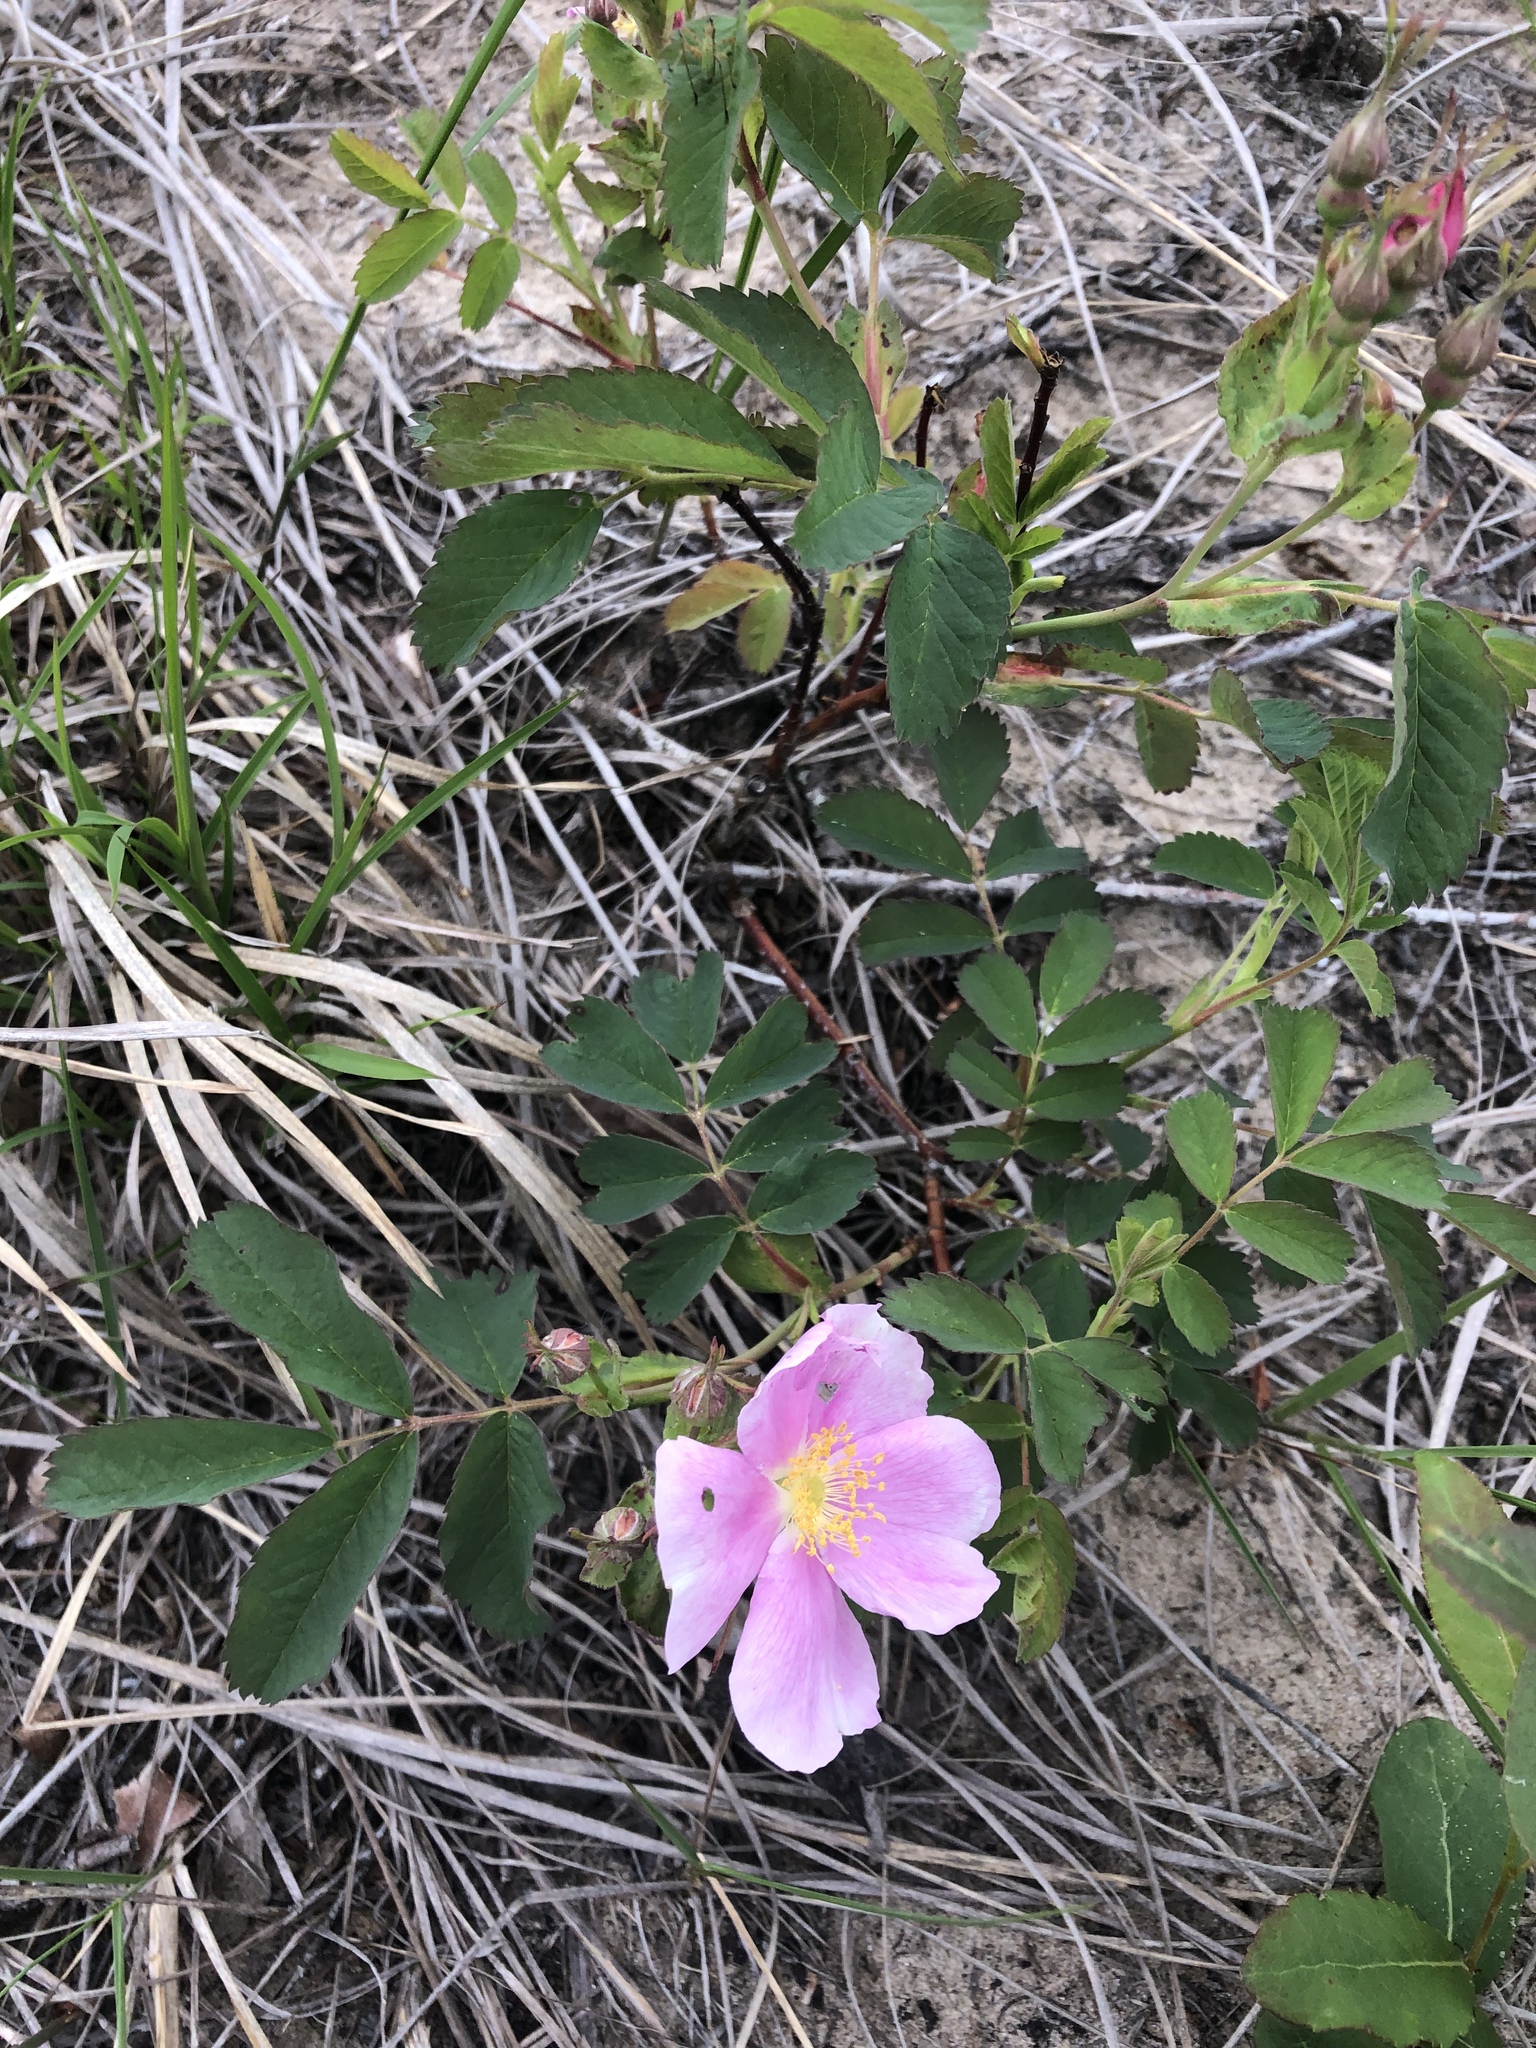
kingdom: Plantae
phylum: Tracheophyta
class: Magnoliopsida
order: Rosales
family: Rosaceae
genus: Rosa
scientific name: Rosa blanda
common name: Smooth rose
